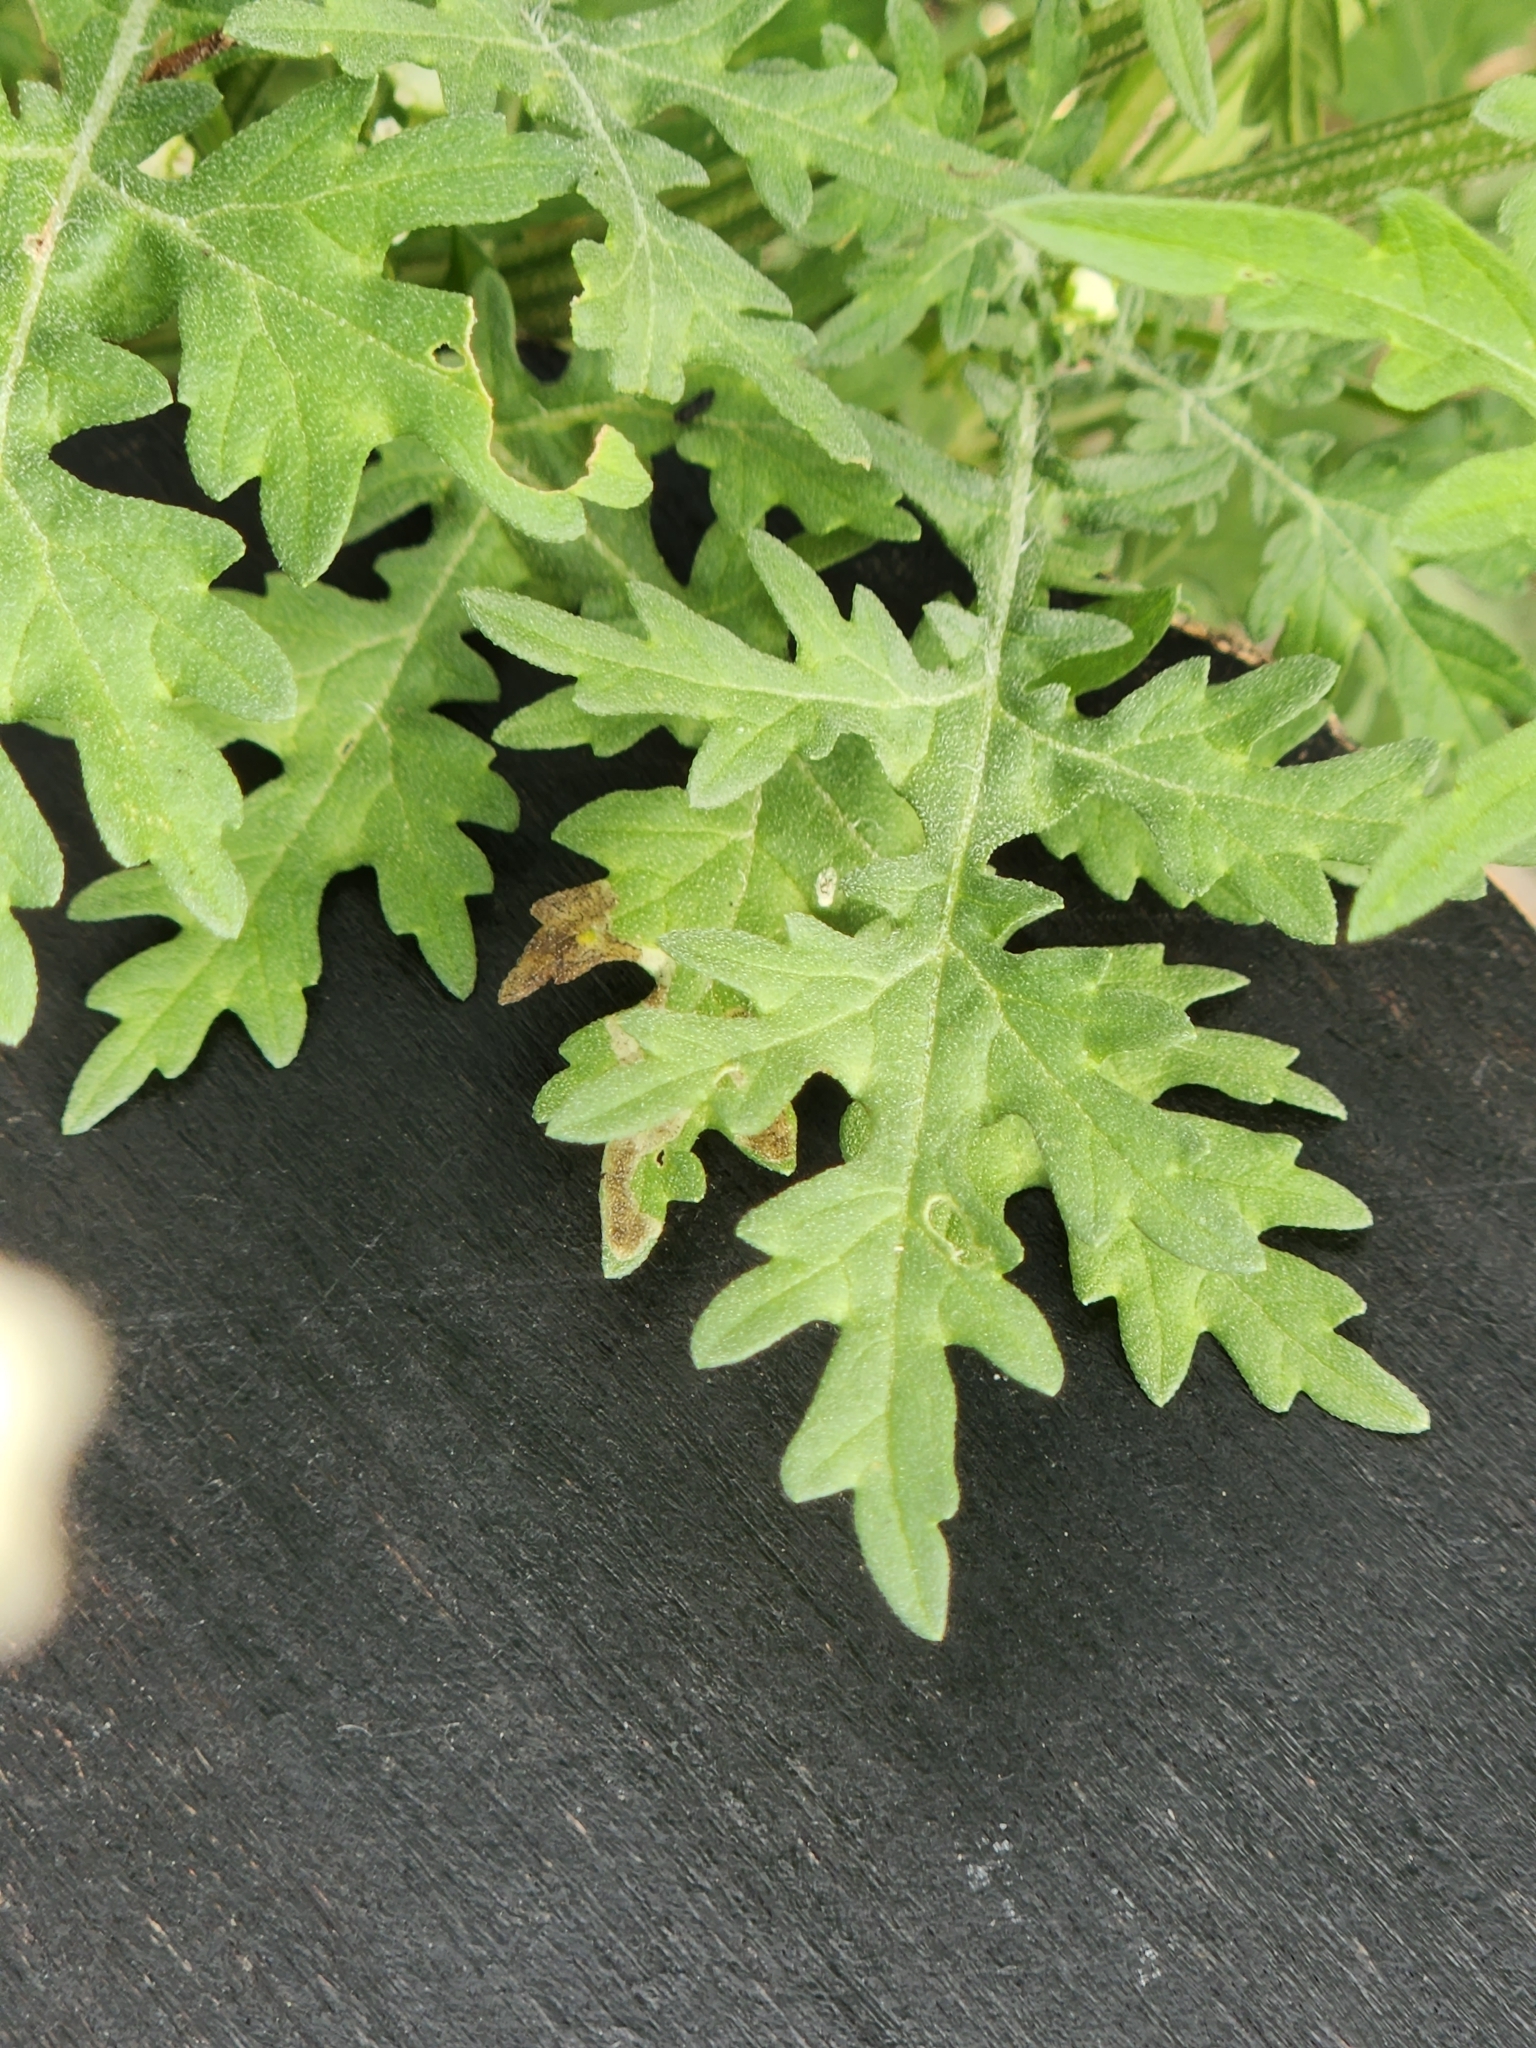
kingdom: Plantae
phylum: Tracheophyta
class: Magnoliopsida
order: Asterales
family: Asteraceae
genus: Parthenium
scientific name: Parthenium hysterophorus
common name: Santa maria feverfew
